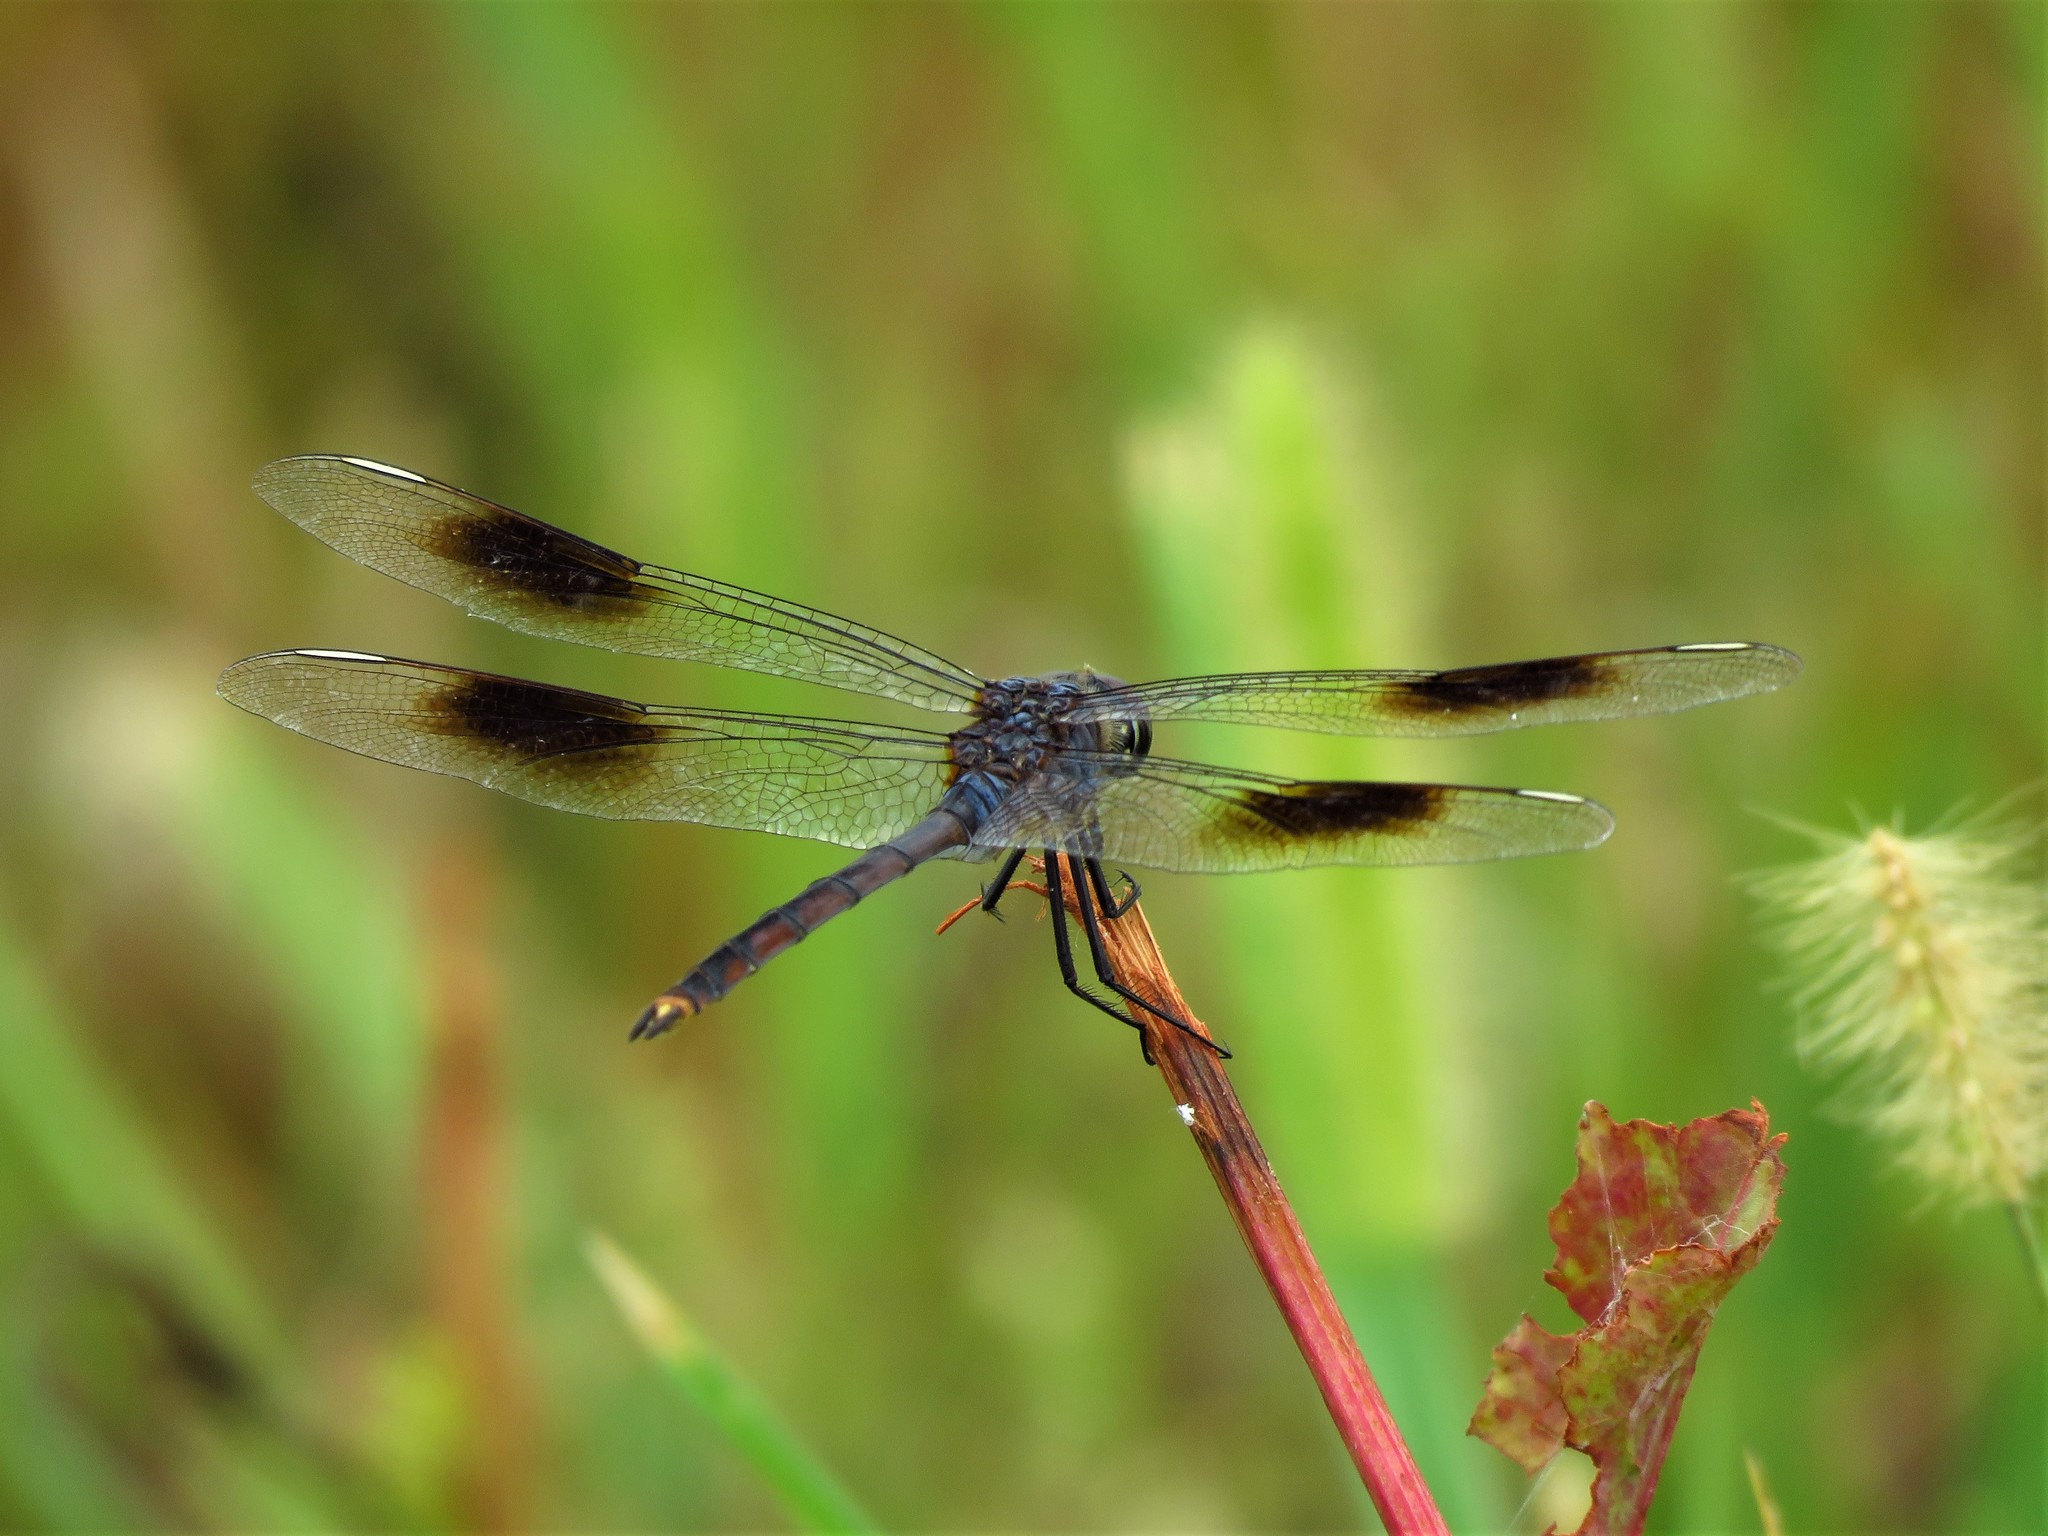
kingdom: Animalia
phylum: Arthropoda
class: Insecta
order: Odonata
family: Libellulidae
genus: Brachymesia
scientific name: Brachymesia gravida
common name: Four-spotted pennant
